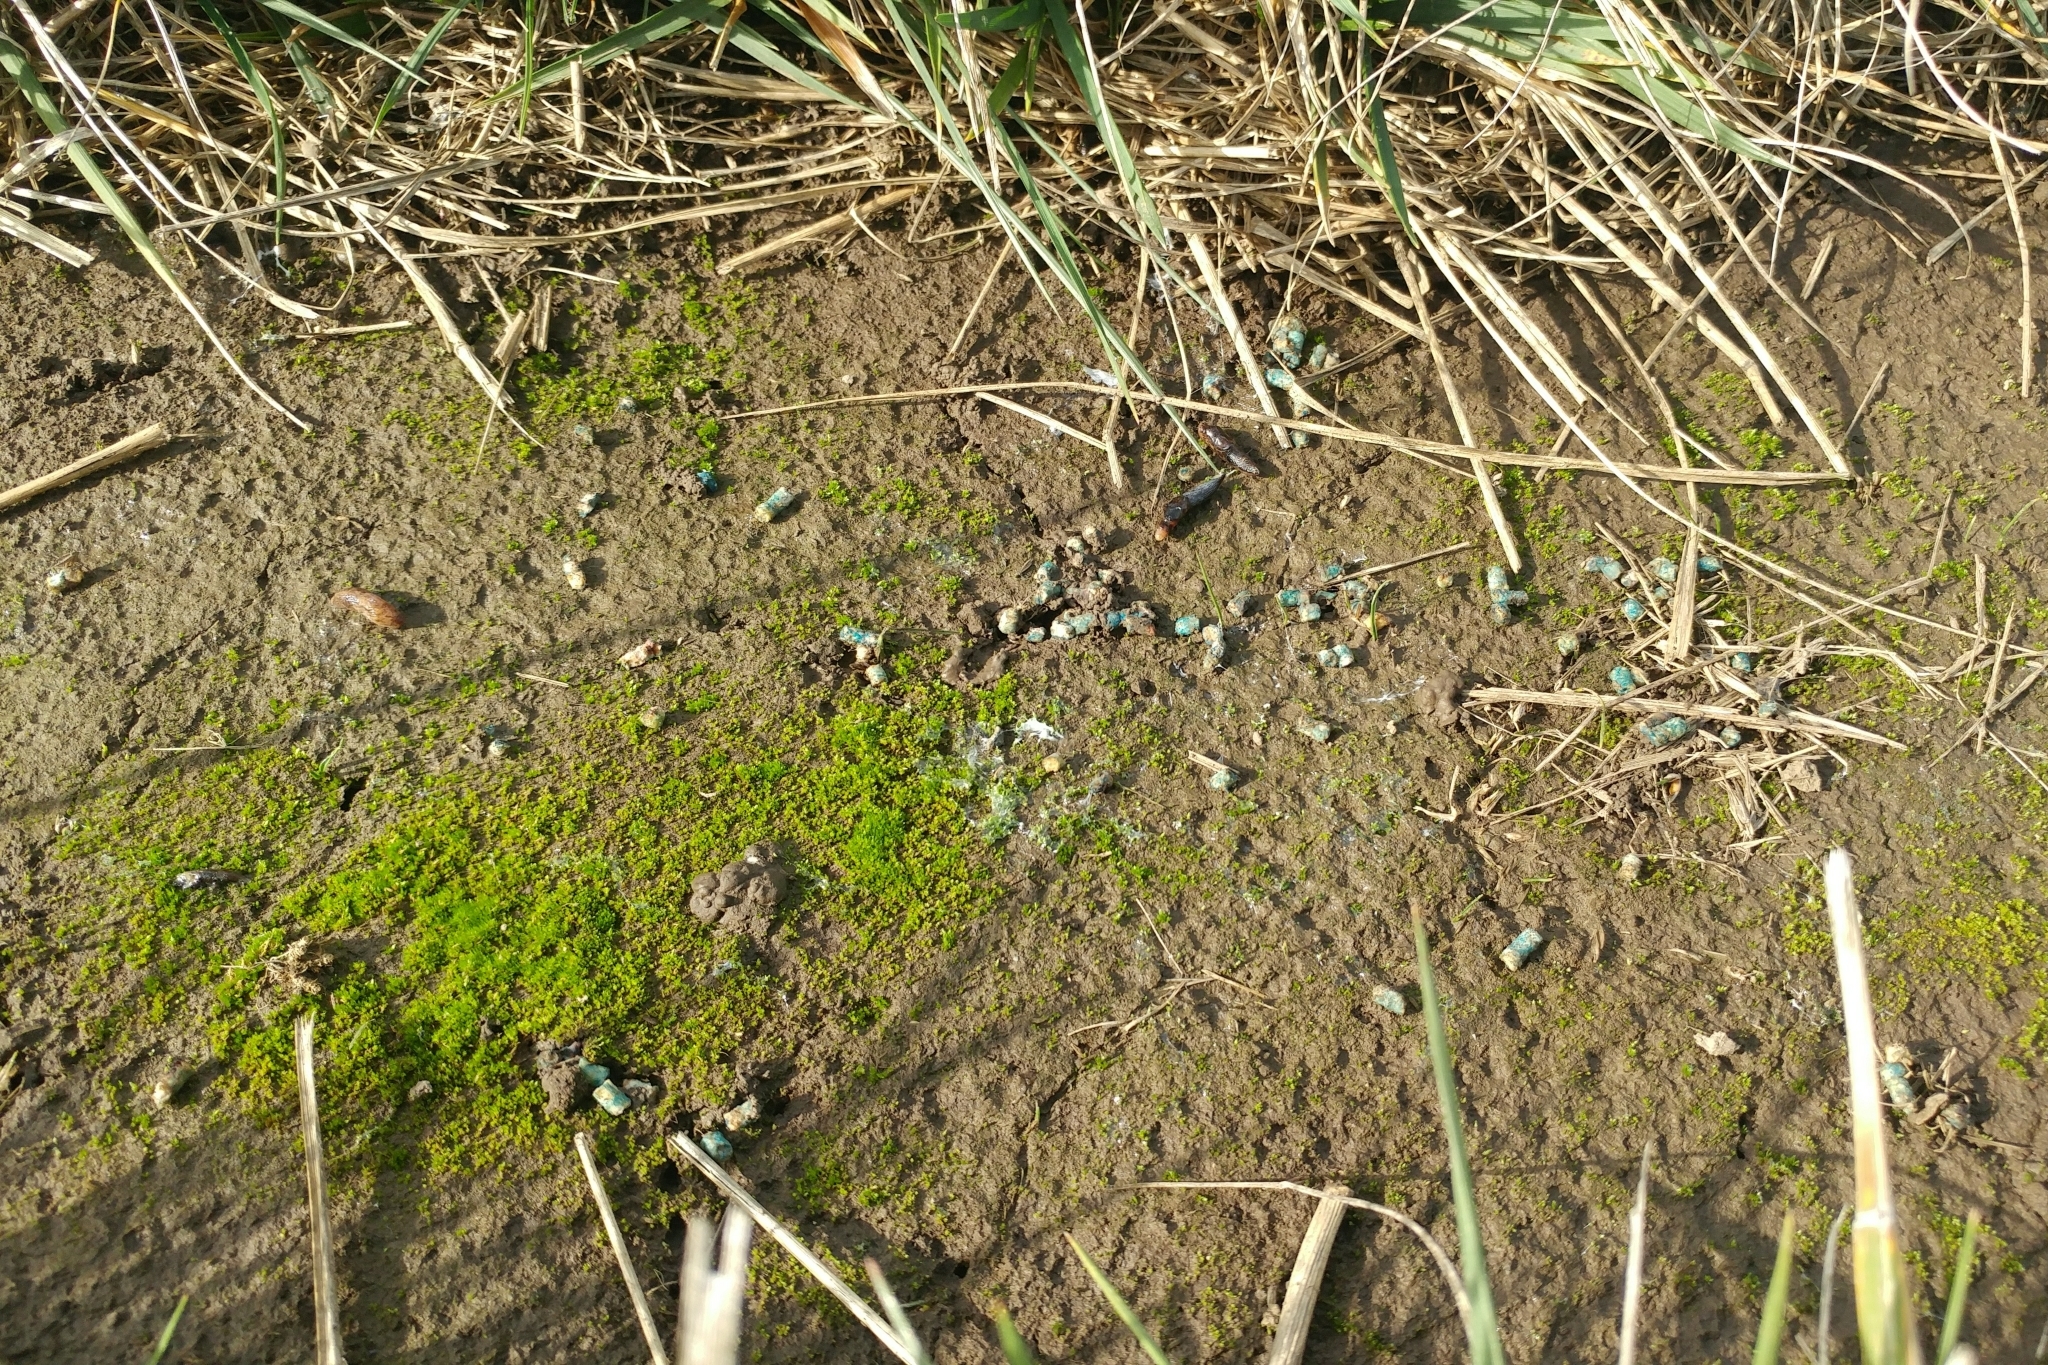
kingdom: Animalia
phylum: Mollusca
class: Gastropoda
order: Stylommatophora
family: Agriolimacidae
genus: Deroceras
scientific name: Deroceras reticulatum
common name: Gray field slug
